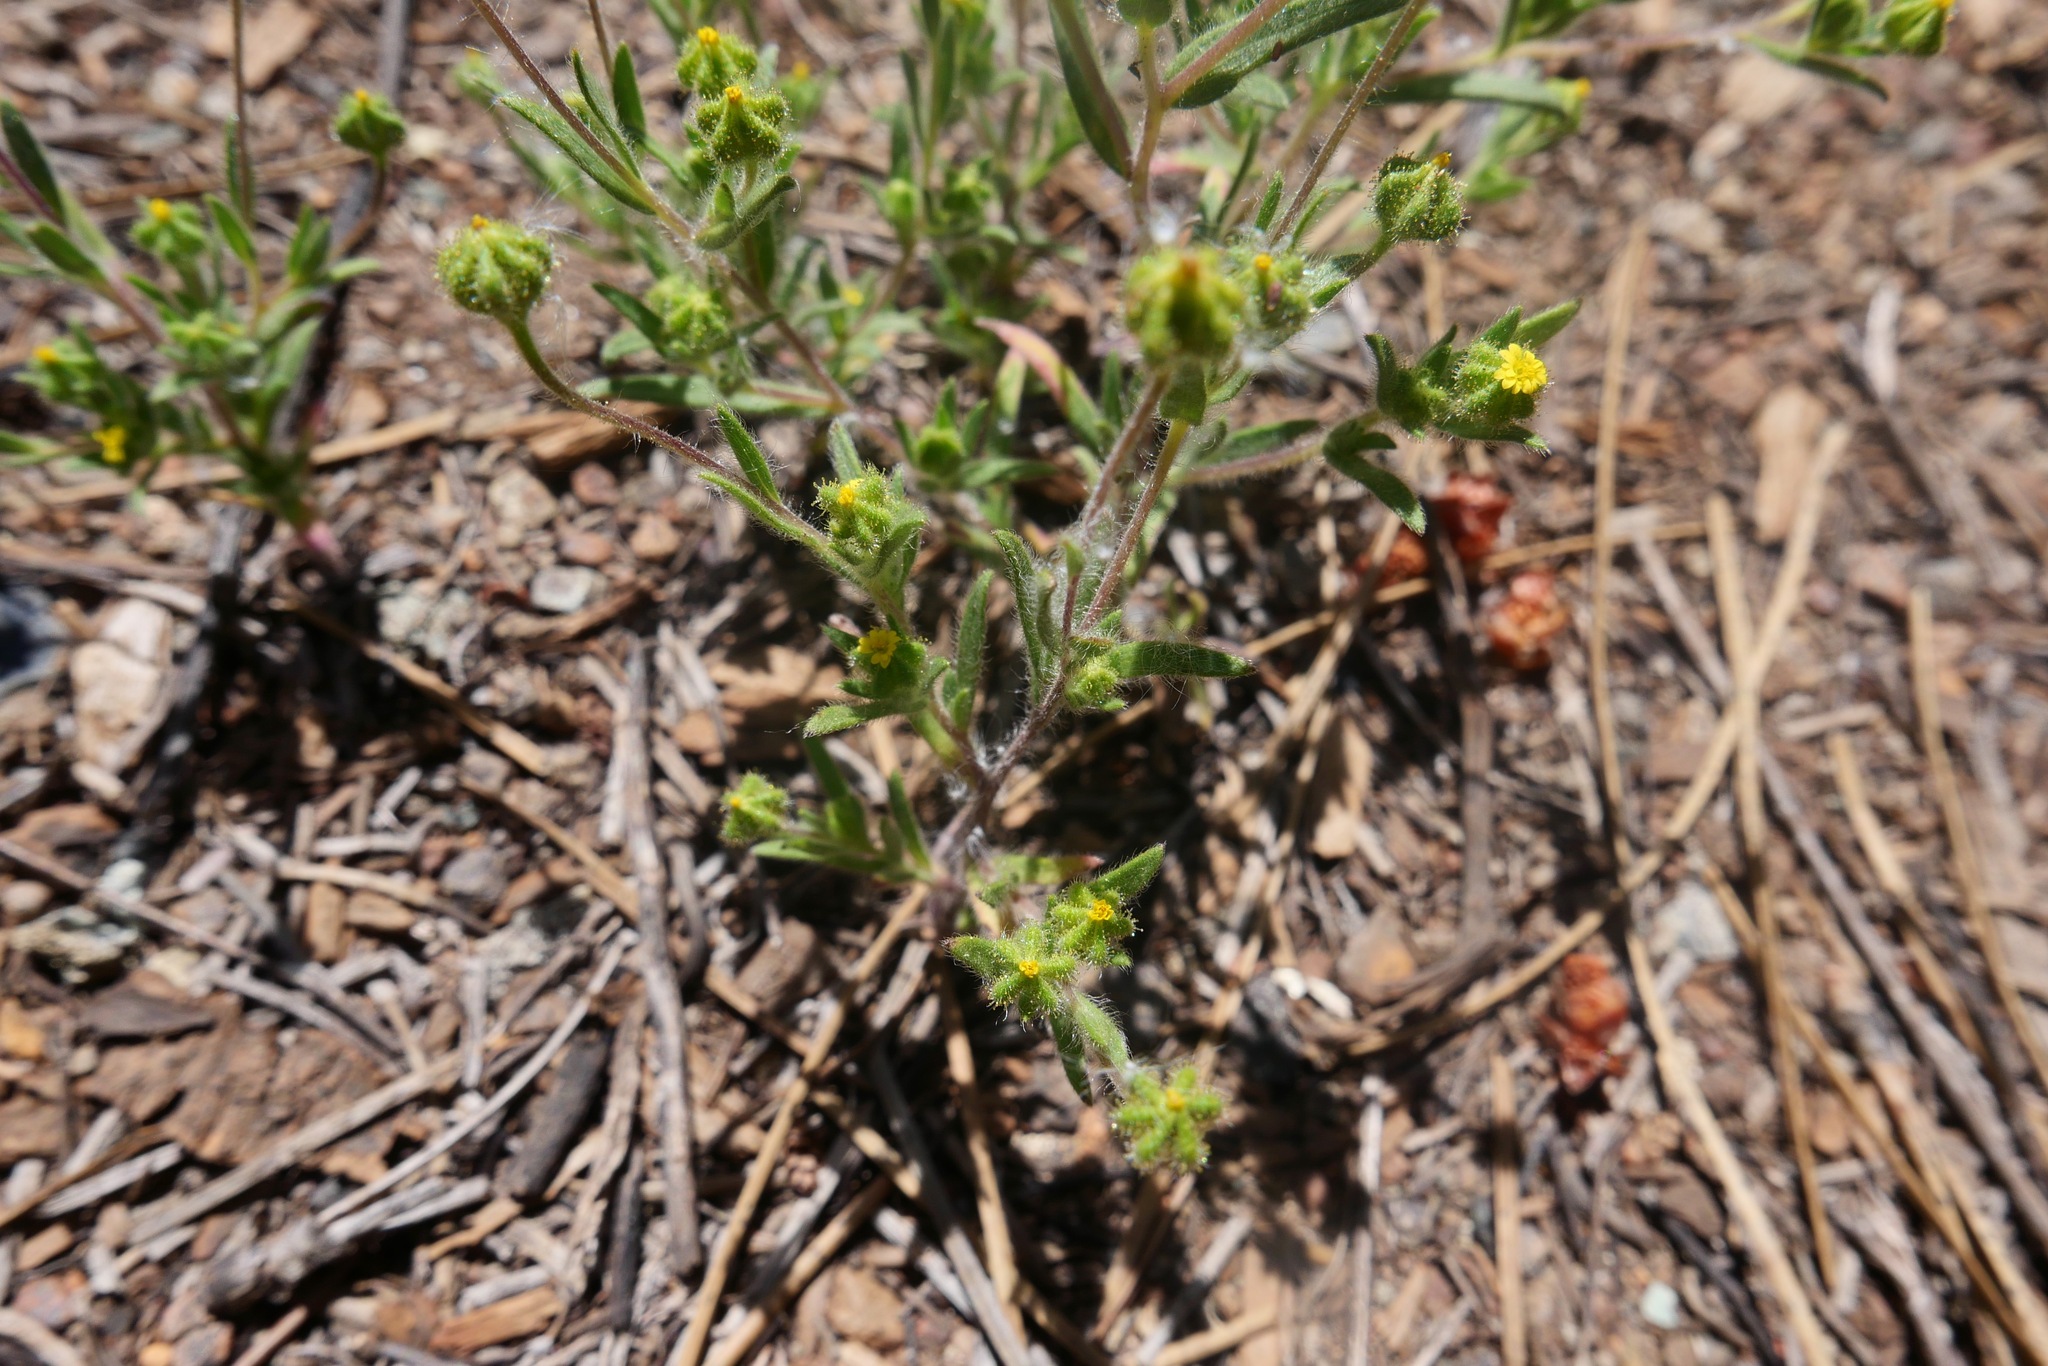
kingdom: Plantae
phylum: Tracheophyta
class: Magnoliopsida
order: Asterales
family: Asteraceae
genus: Madia
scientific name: Madia exigua
